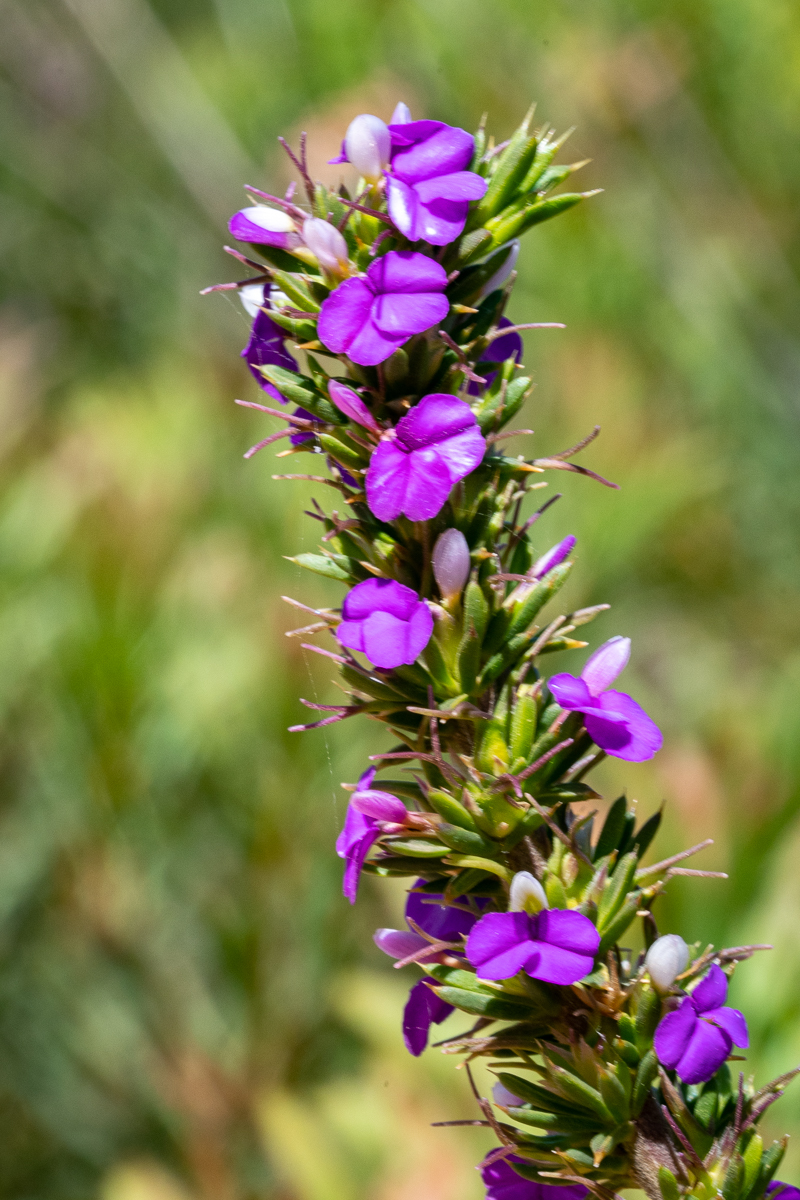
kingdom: Plantae
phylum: Tracheophyta
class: Magnoliopsida
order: Fabales
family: Polygalaceae
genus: Muraltia
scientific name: Muraltia heisteria
